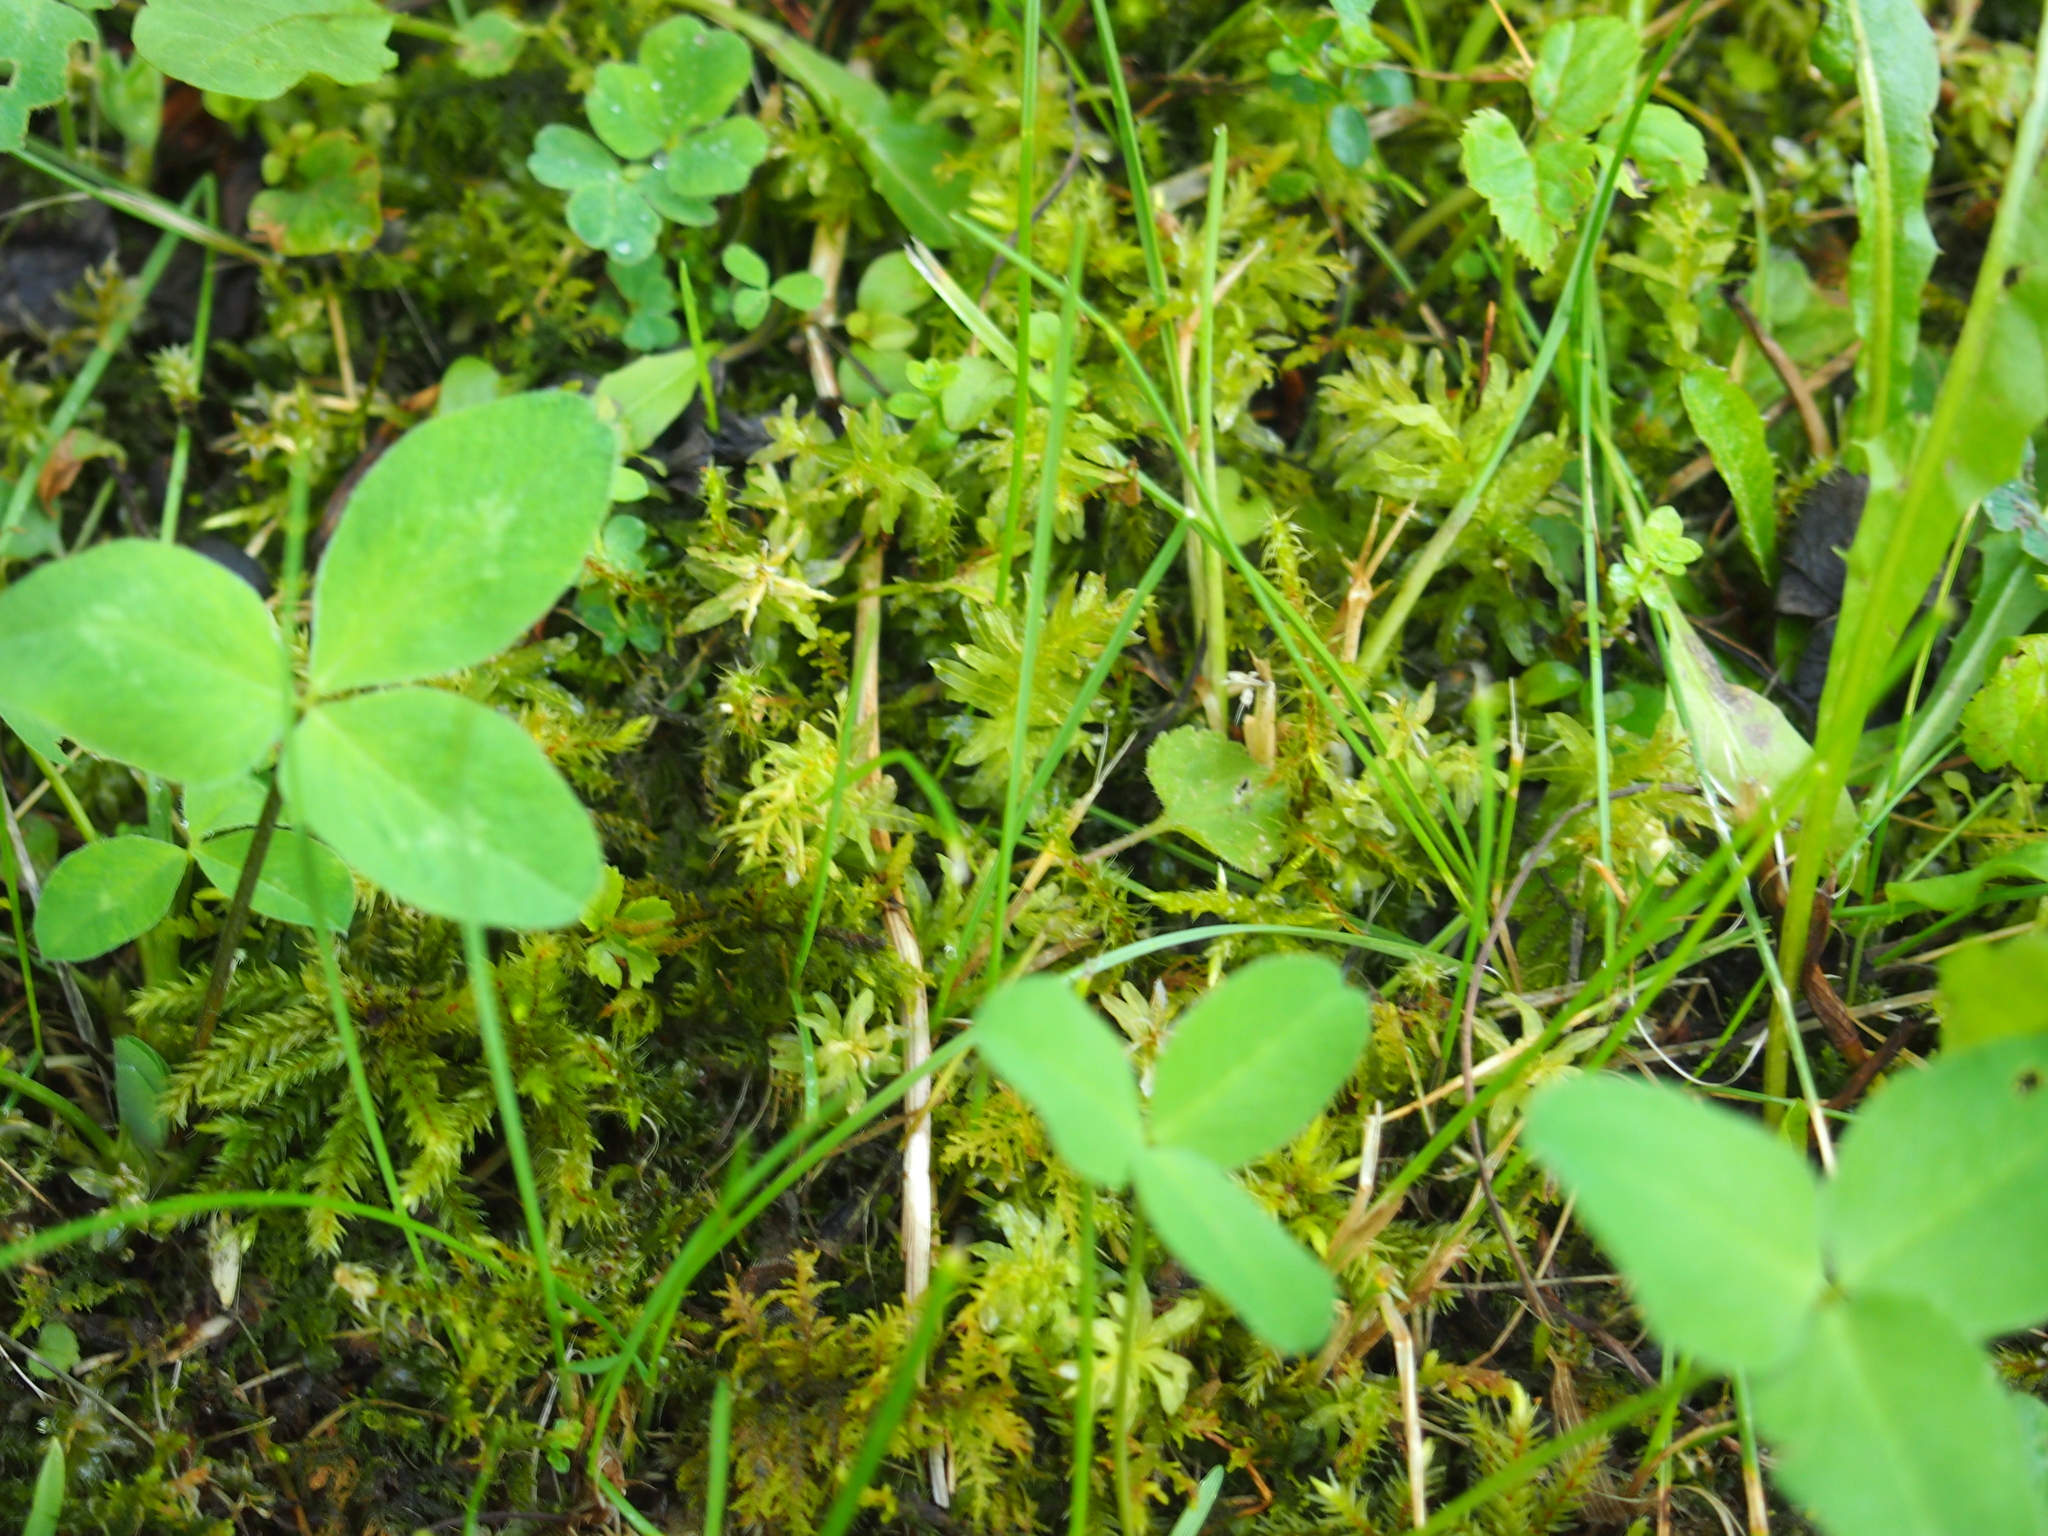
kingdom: Plantae
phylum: Bryophyta
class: Bryopsida
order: Bryales
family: Mniaceae
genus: Plagiomnium
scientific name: Plagiomnium undulatum
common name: Hart's-tongue thyme-moss
